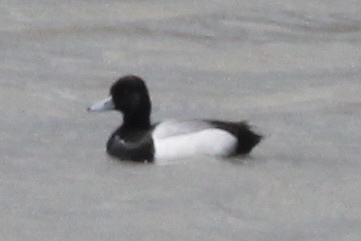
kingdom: Animalia
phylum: Chordata
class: Aves
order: Anseriformes
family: Anatidae
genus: Aythya
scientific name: Aythya affinis
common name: Lesser scaup
